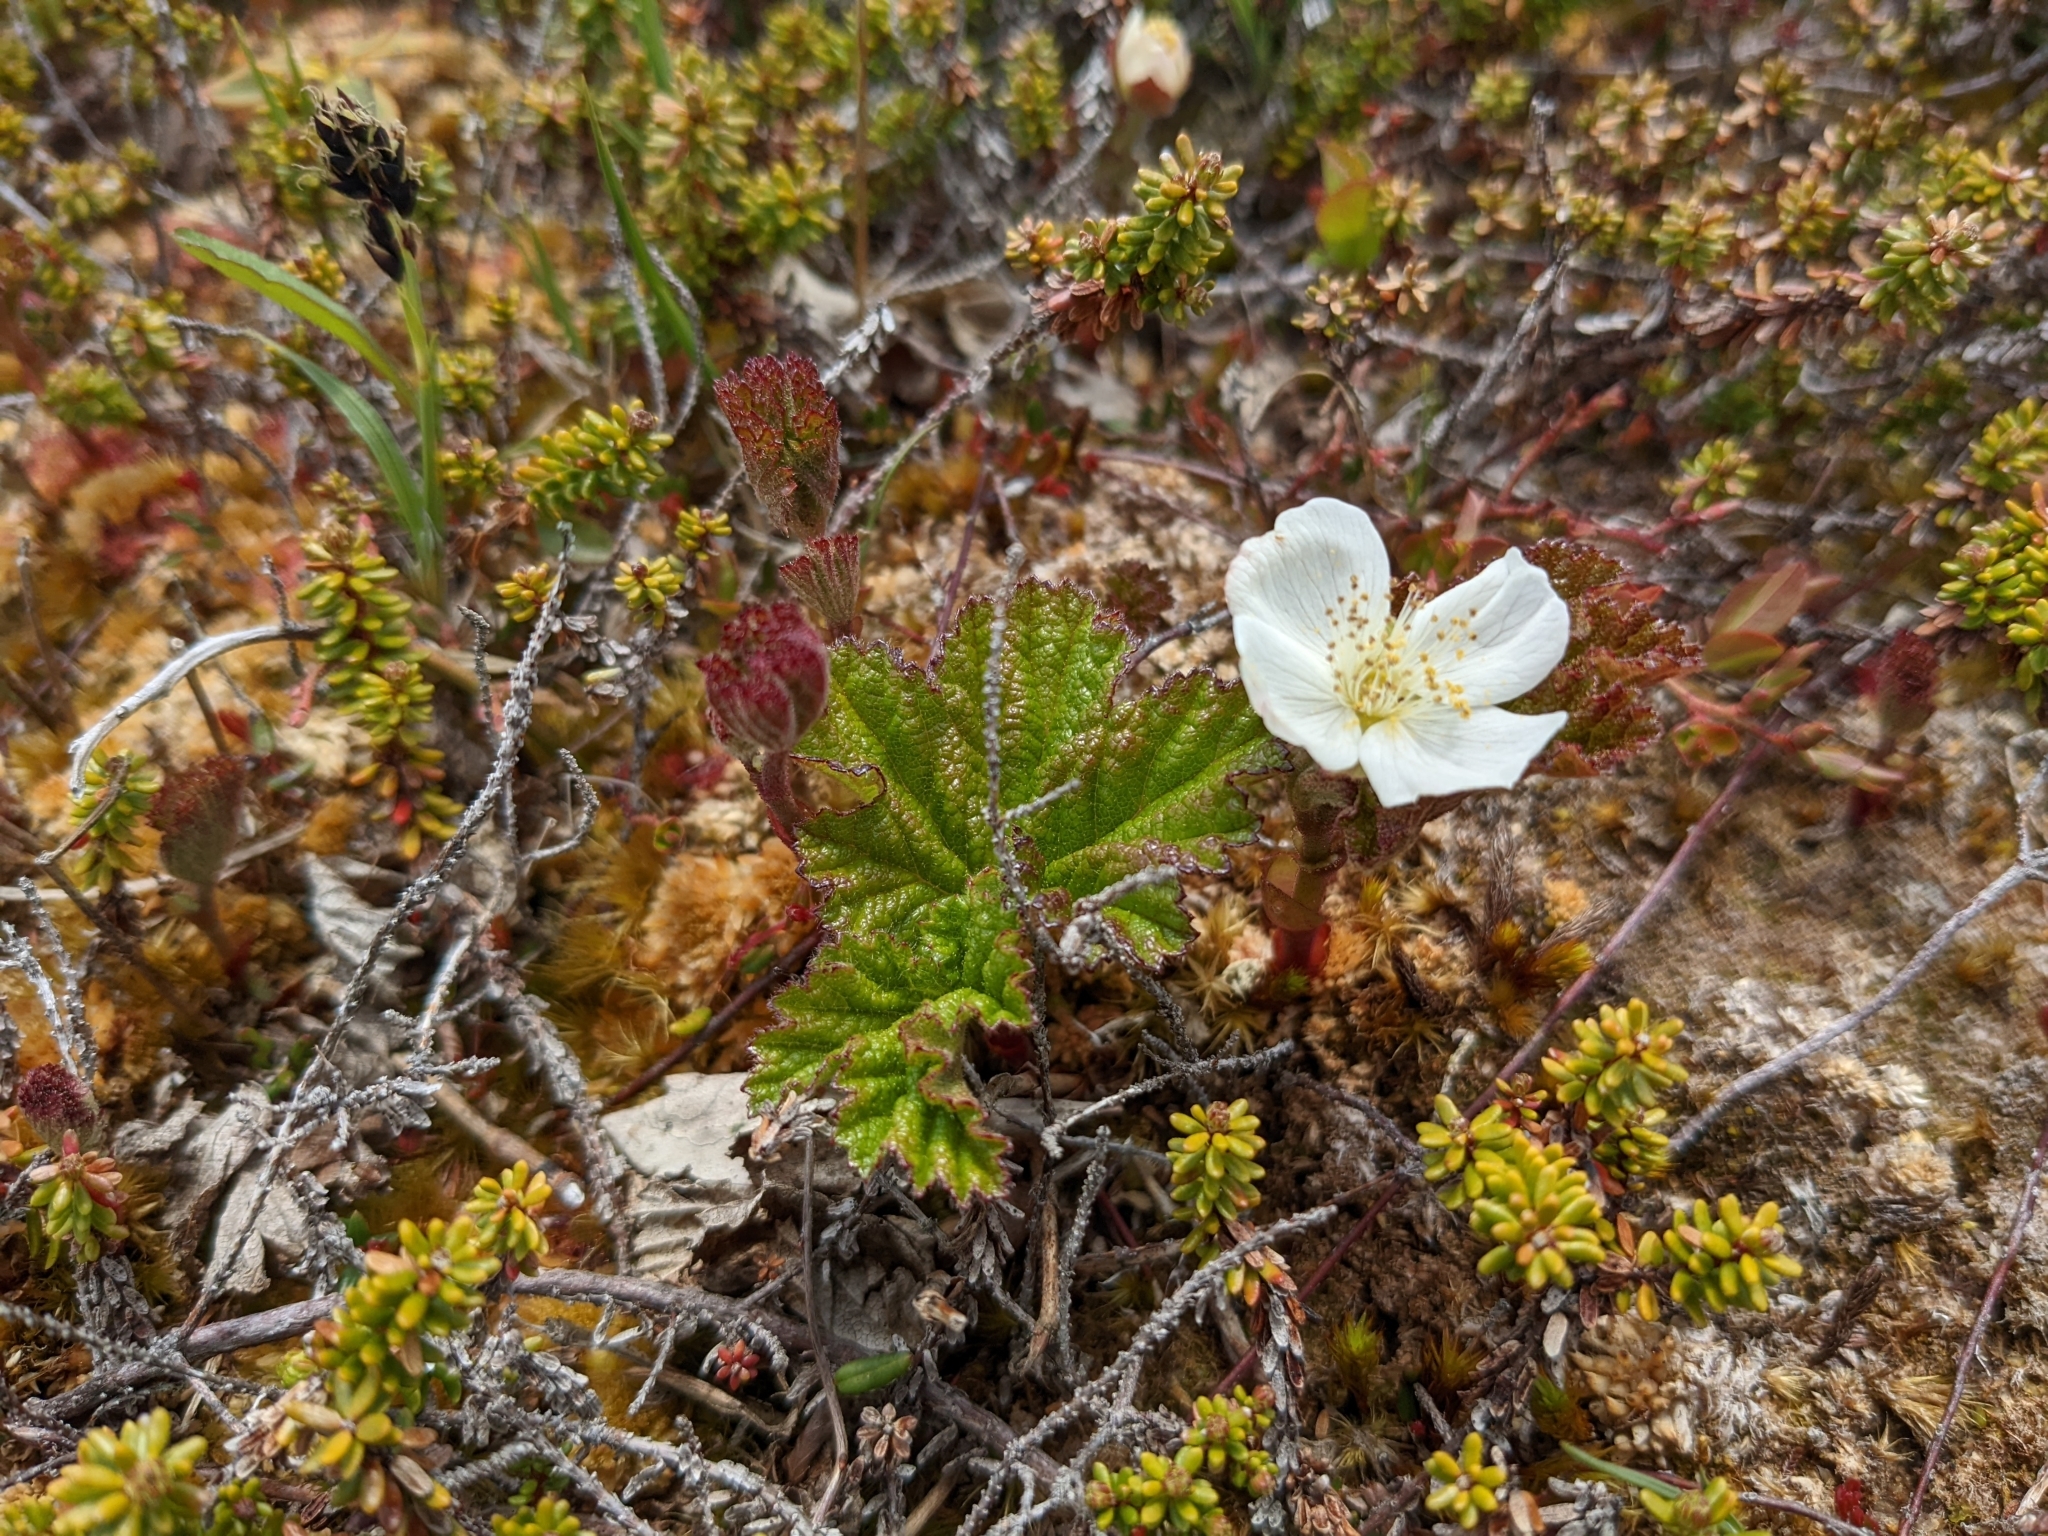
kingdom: Plantae
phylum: Tracheophyta
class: Magnoliopsida
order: Rosales
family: Rosaceae
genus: Rubus
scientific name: Rubus chamaemorus
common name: Cloudberry
